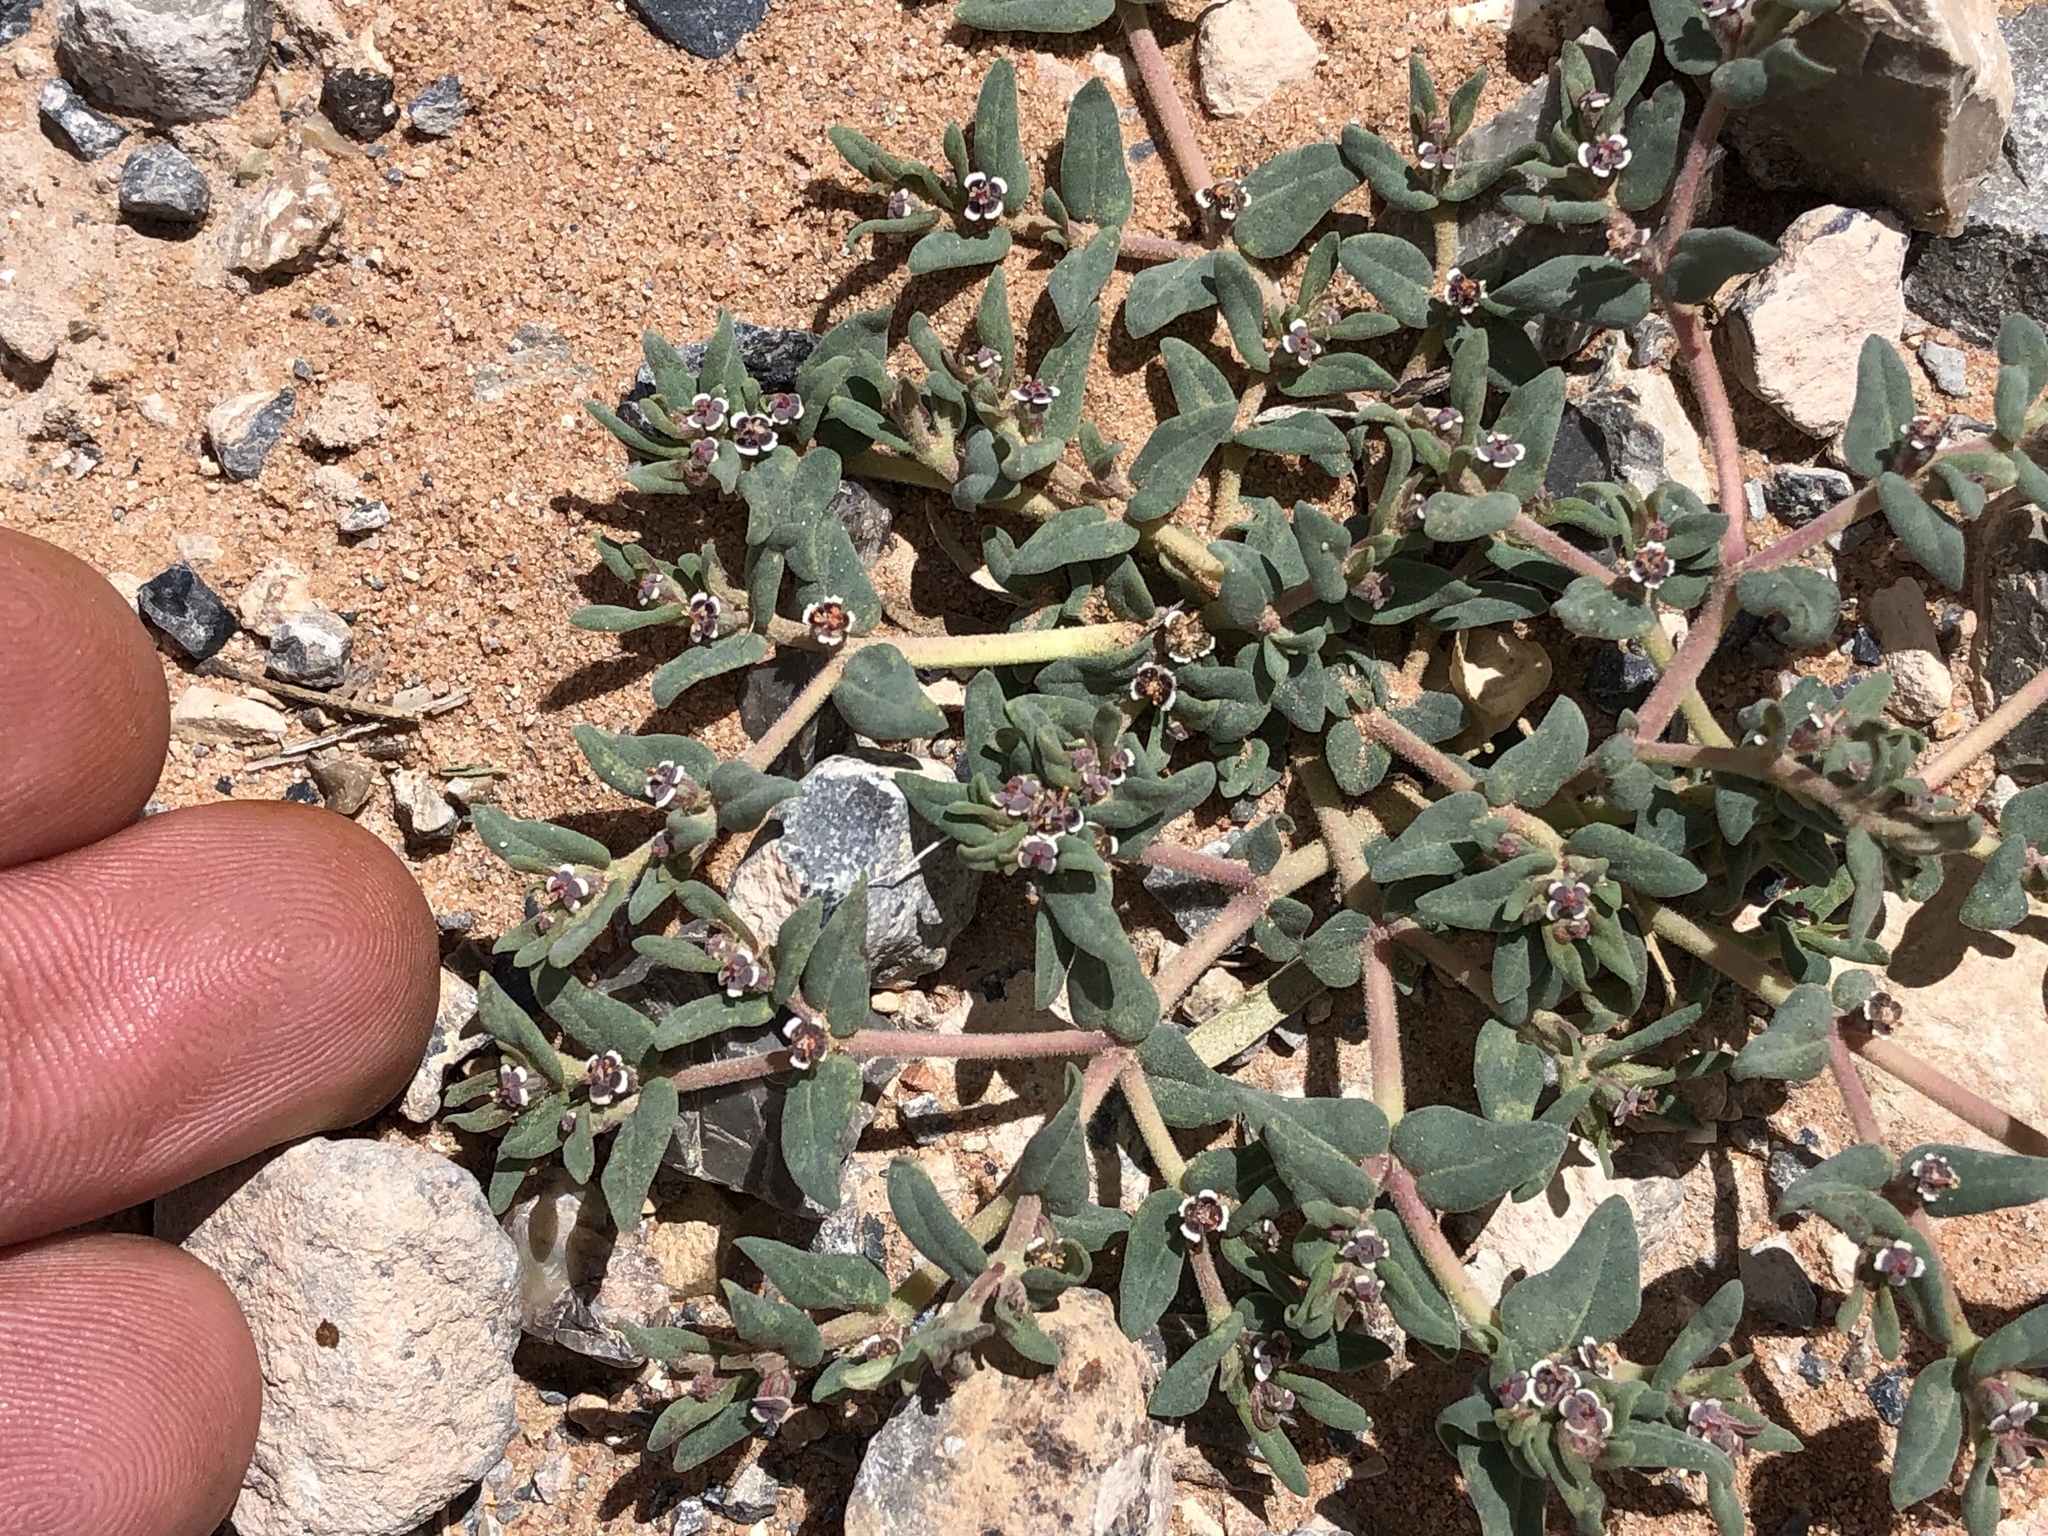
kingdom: Plantae
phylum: Tracheophyta
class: Magnoliopsida
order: Malpighiales
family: Euphorbiaceae
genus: Euphorbia
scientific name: Euphorbia lata
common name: Hoary euphorbia
